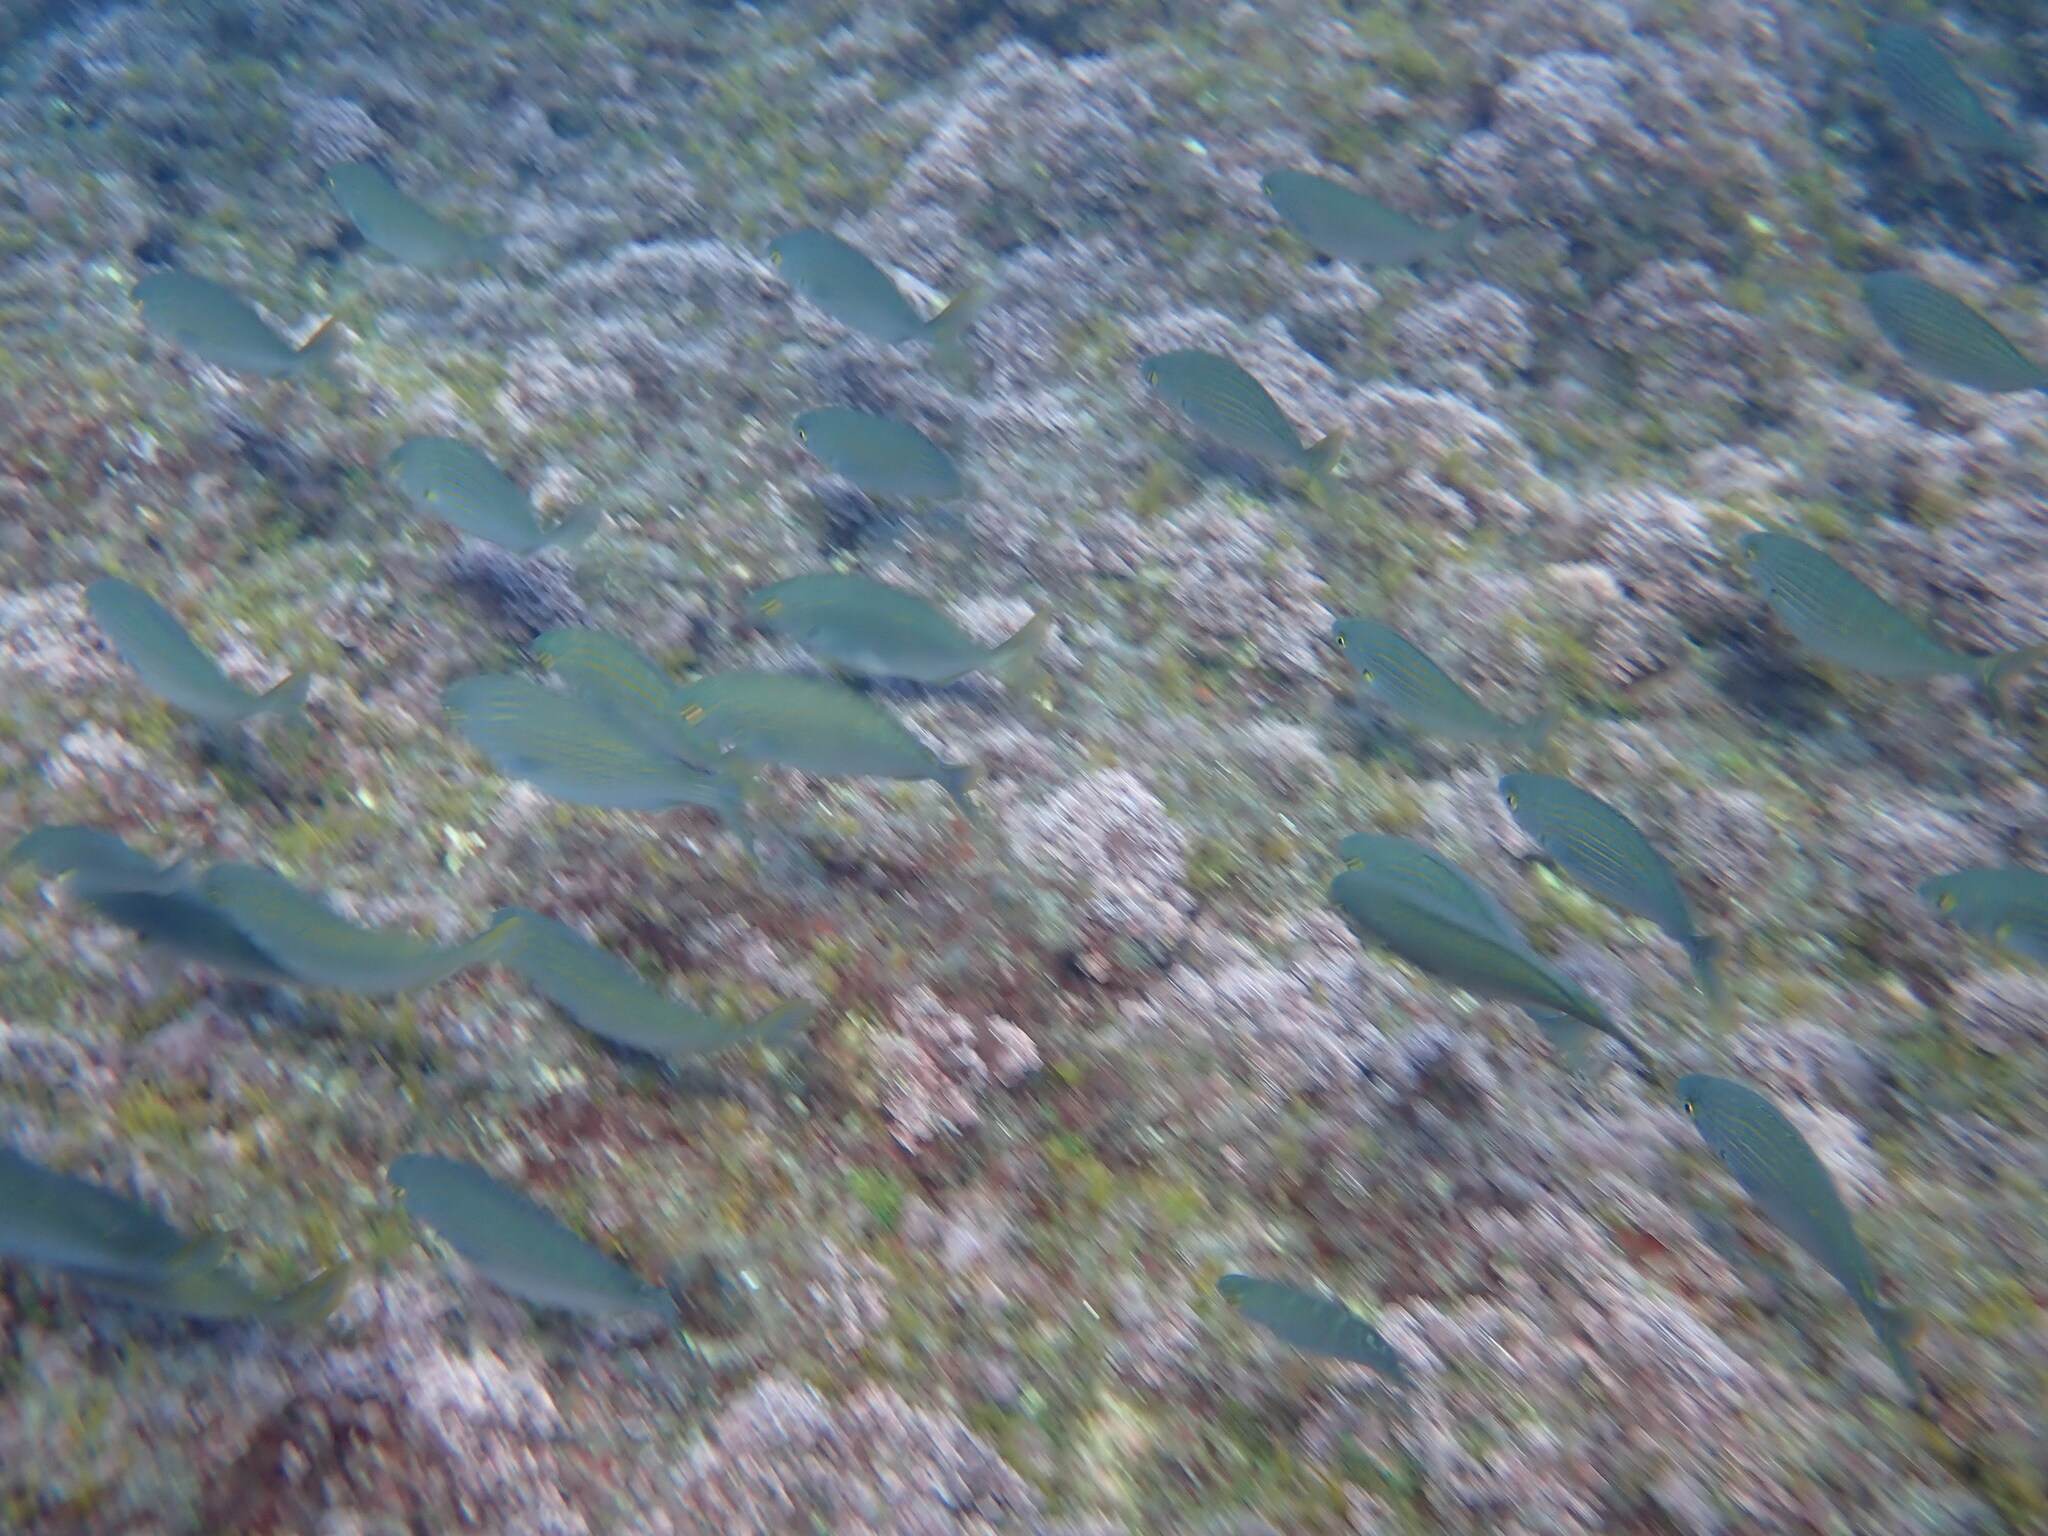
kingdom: Animalia
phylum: Chordata
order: Perciformes
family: Sparidae
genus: Sarpa
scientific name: Sarpa salpa
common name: Salema
